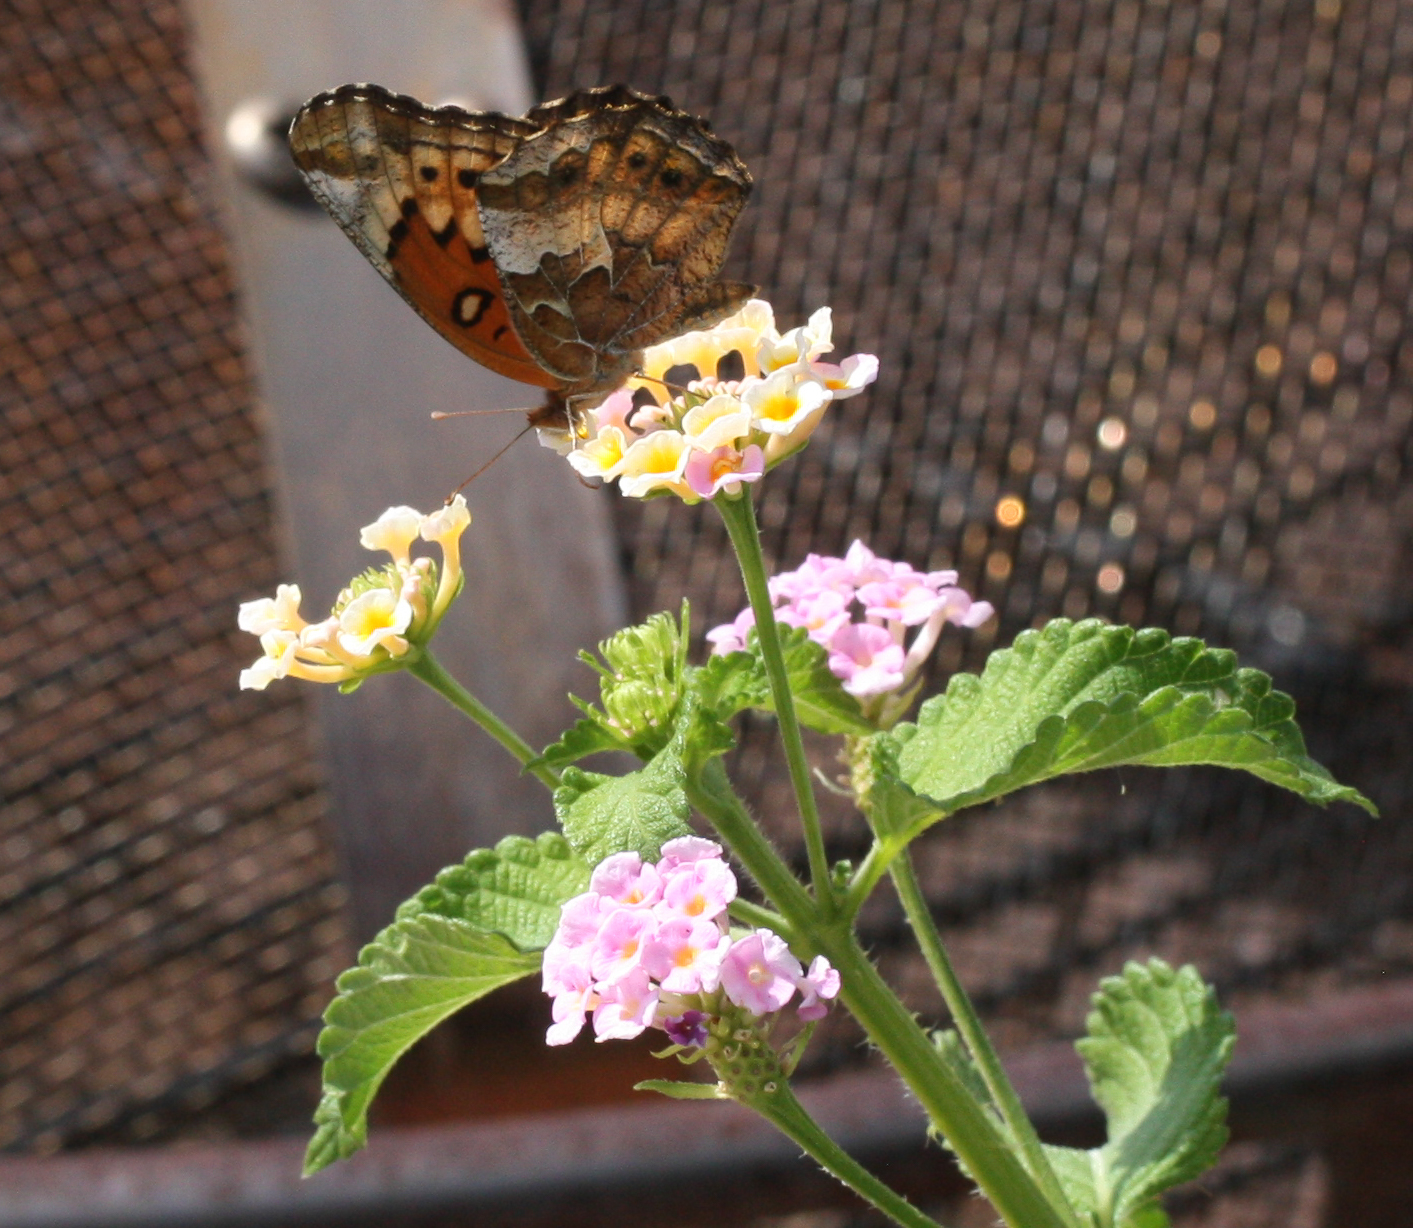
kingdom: Animalia
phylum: Arthropoda
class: Insecta
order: Lepidoptera
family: Nymphalidae
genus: Euptoieta
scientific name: Euptoieta claudia
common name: Variegated fritillary
